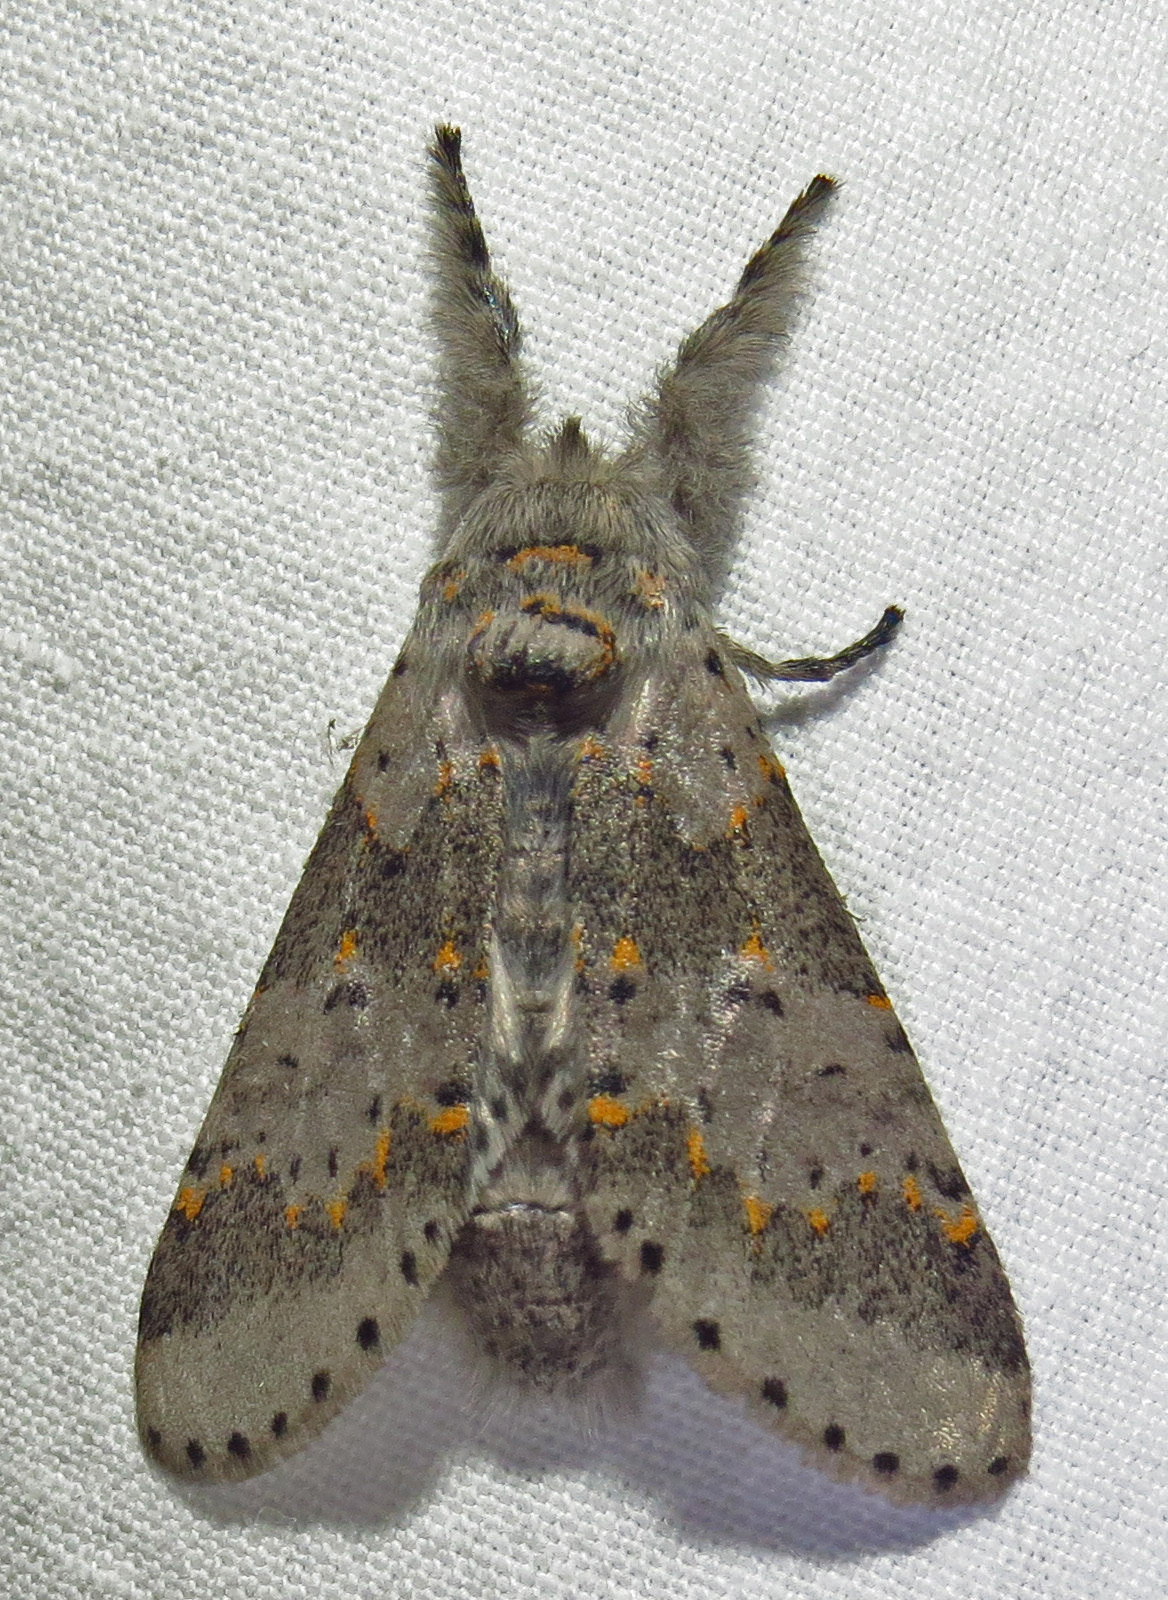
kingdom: Animalia
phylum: Arthropoda
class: Insecta
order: Lepidoptera
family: Notodontidae
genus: Furcula
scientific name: Furcula cinerea
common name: Gray furcula
